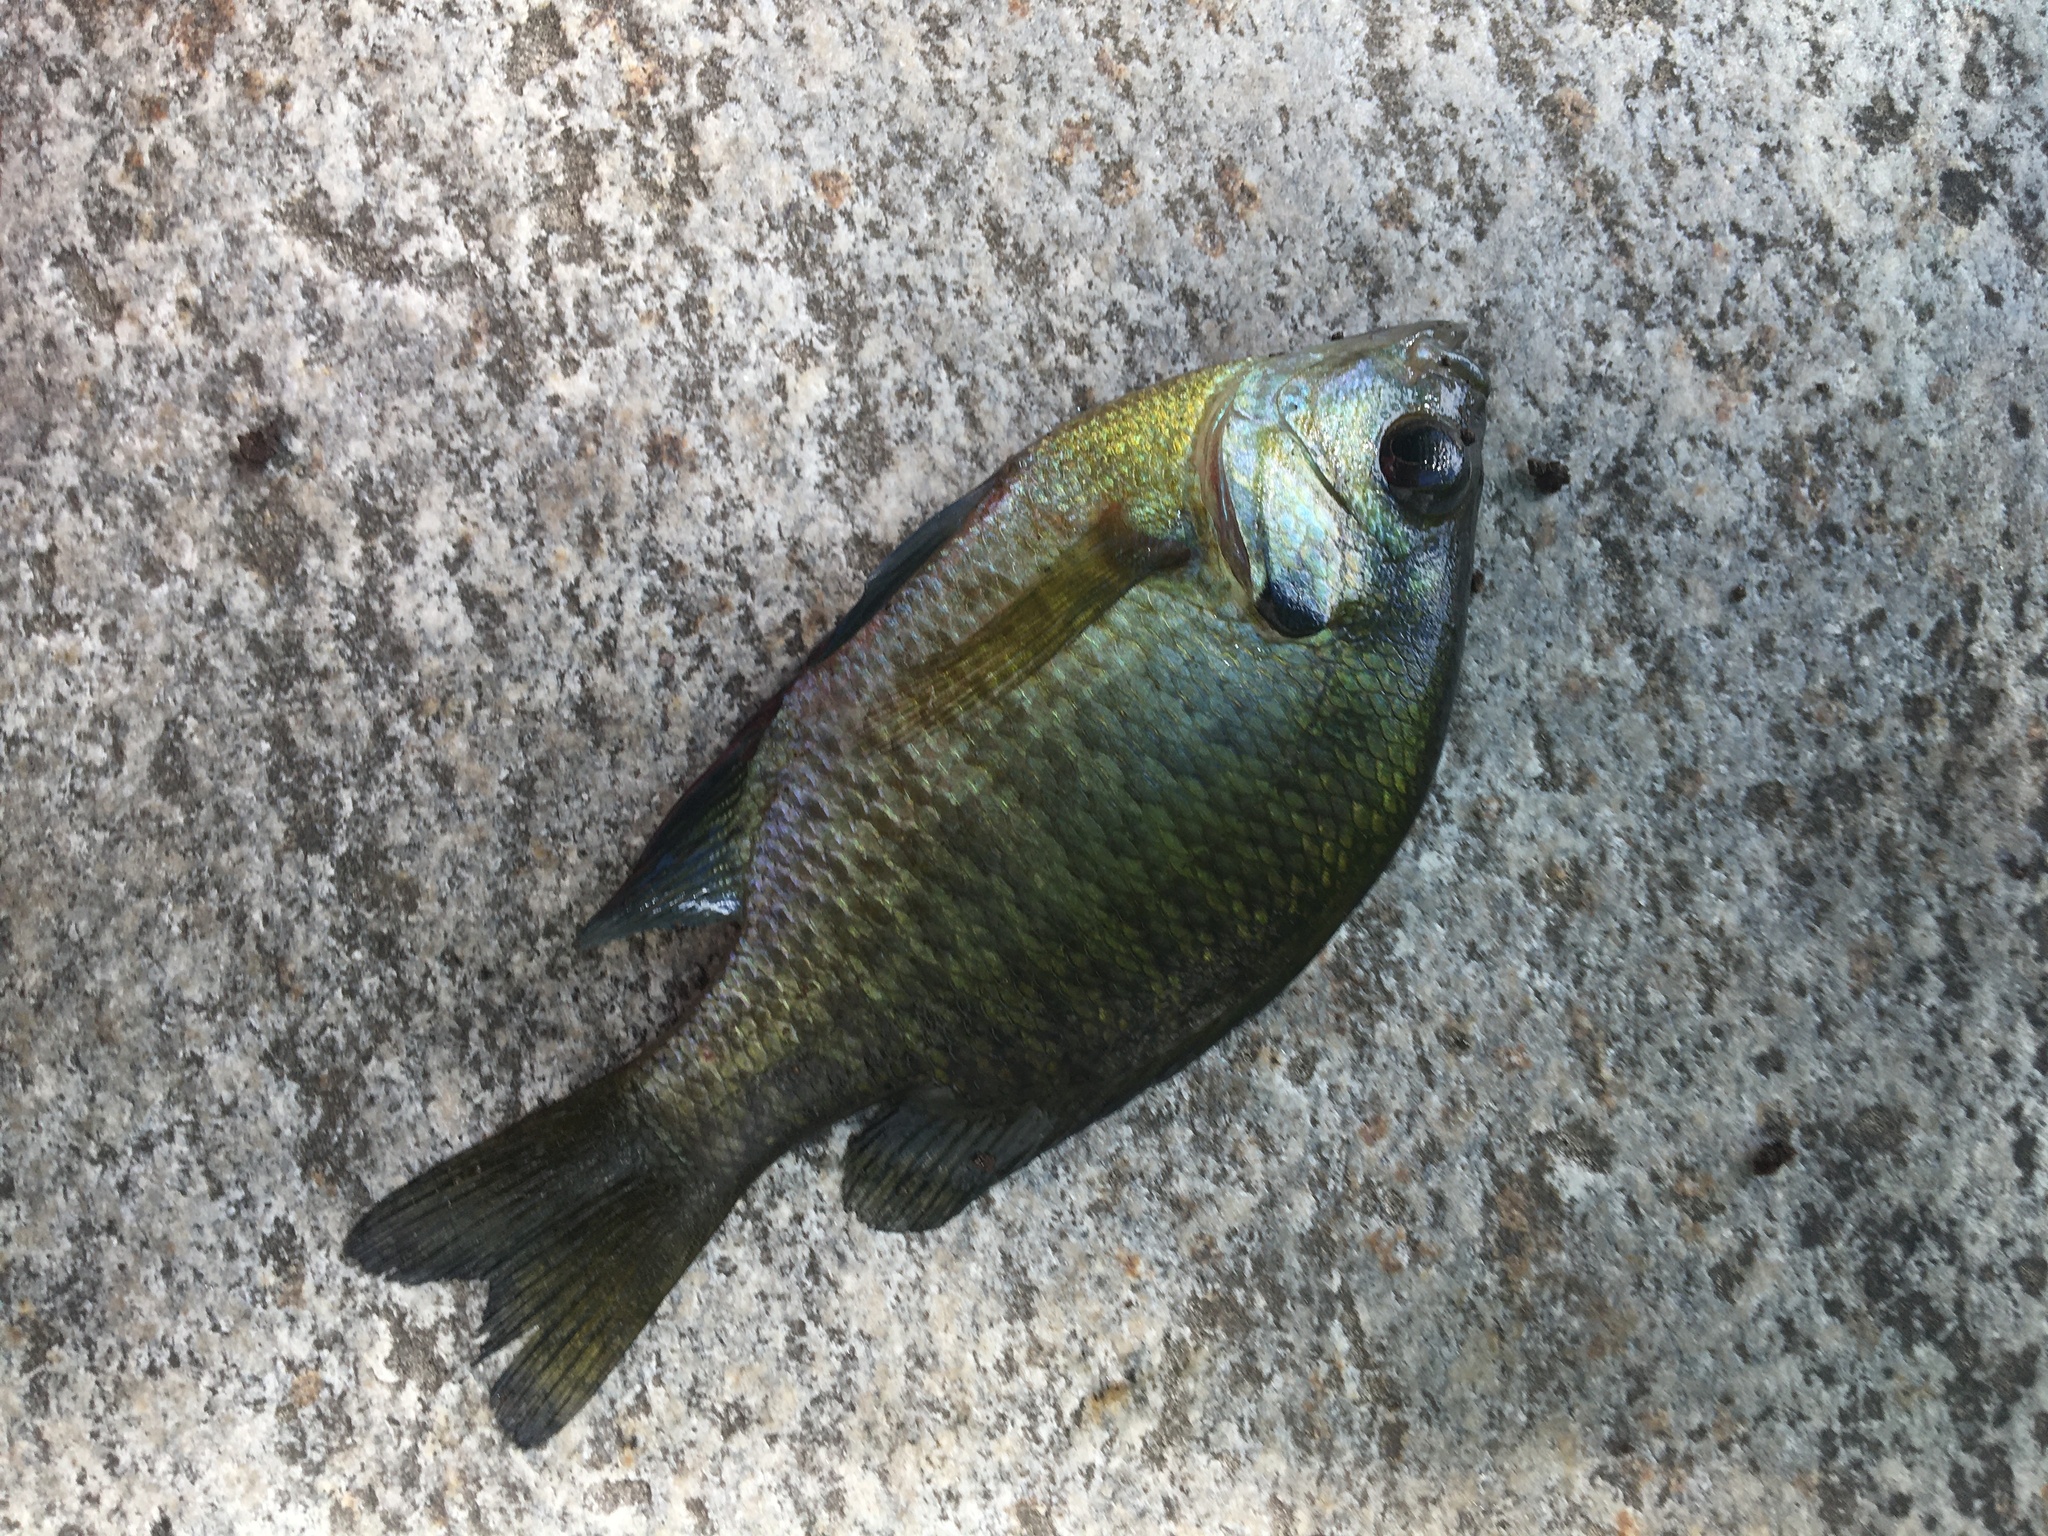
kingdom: Animalia
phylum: Chordata
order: Perciformes
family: Centrarchidae
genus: Lepomis
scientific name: Lepomis macrochirus
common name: Bluegill
